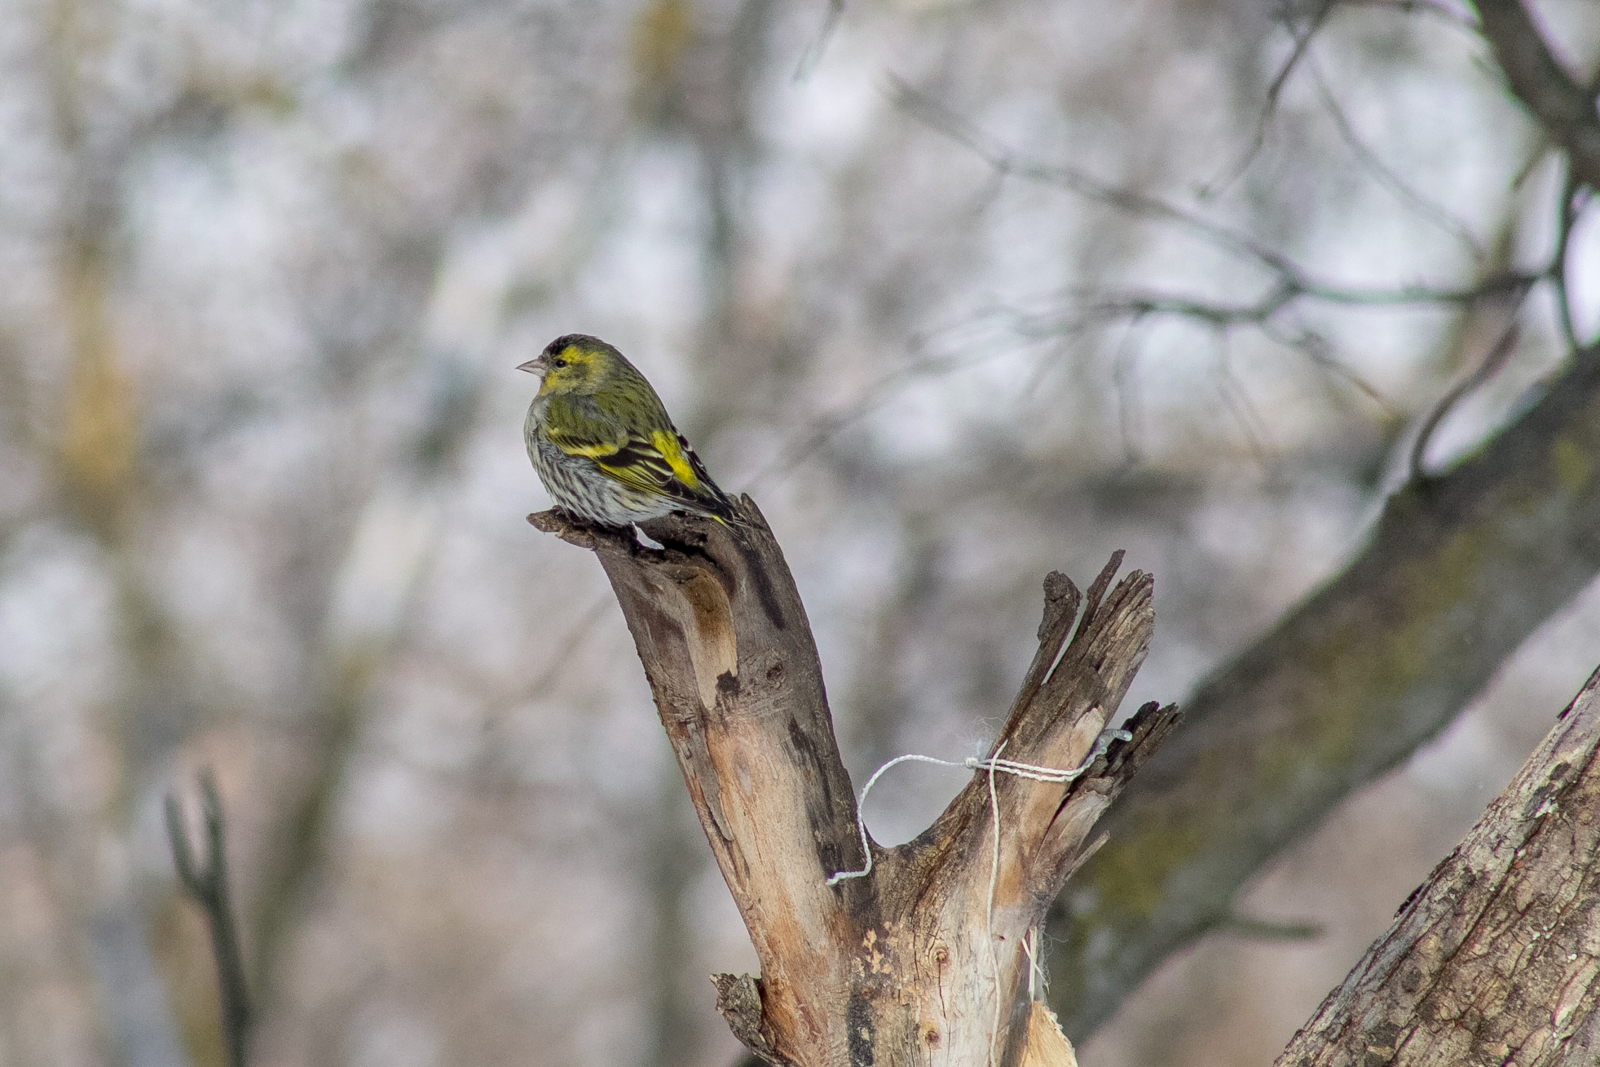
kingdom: Animalia
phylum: Chordata
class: Aves
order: Passeriformes
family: Fringillidae
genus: Spinus
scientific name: Spinus spinus
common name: Eurasian siskin
